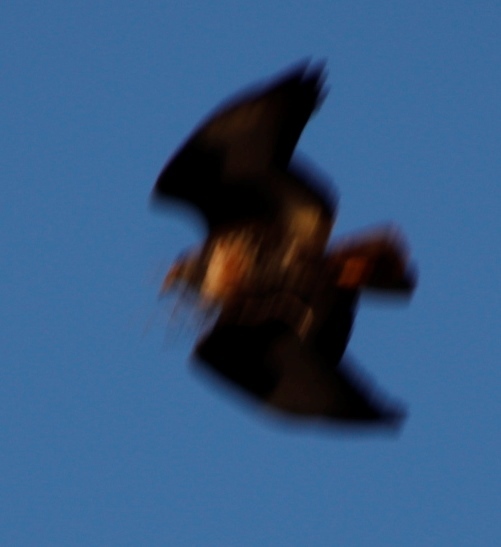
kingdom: Animalia
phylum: Chordata
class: Aves
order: Accipitriformes
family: Accipitridae
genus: Buteo
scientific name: Buteo rufofuscus
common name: Jackal buzzard
